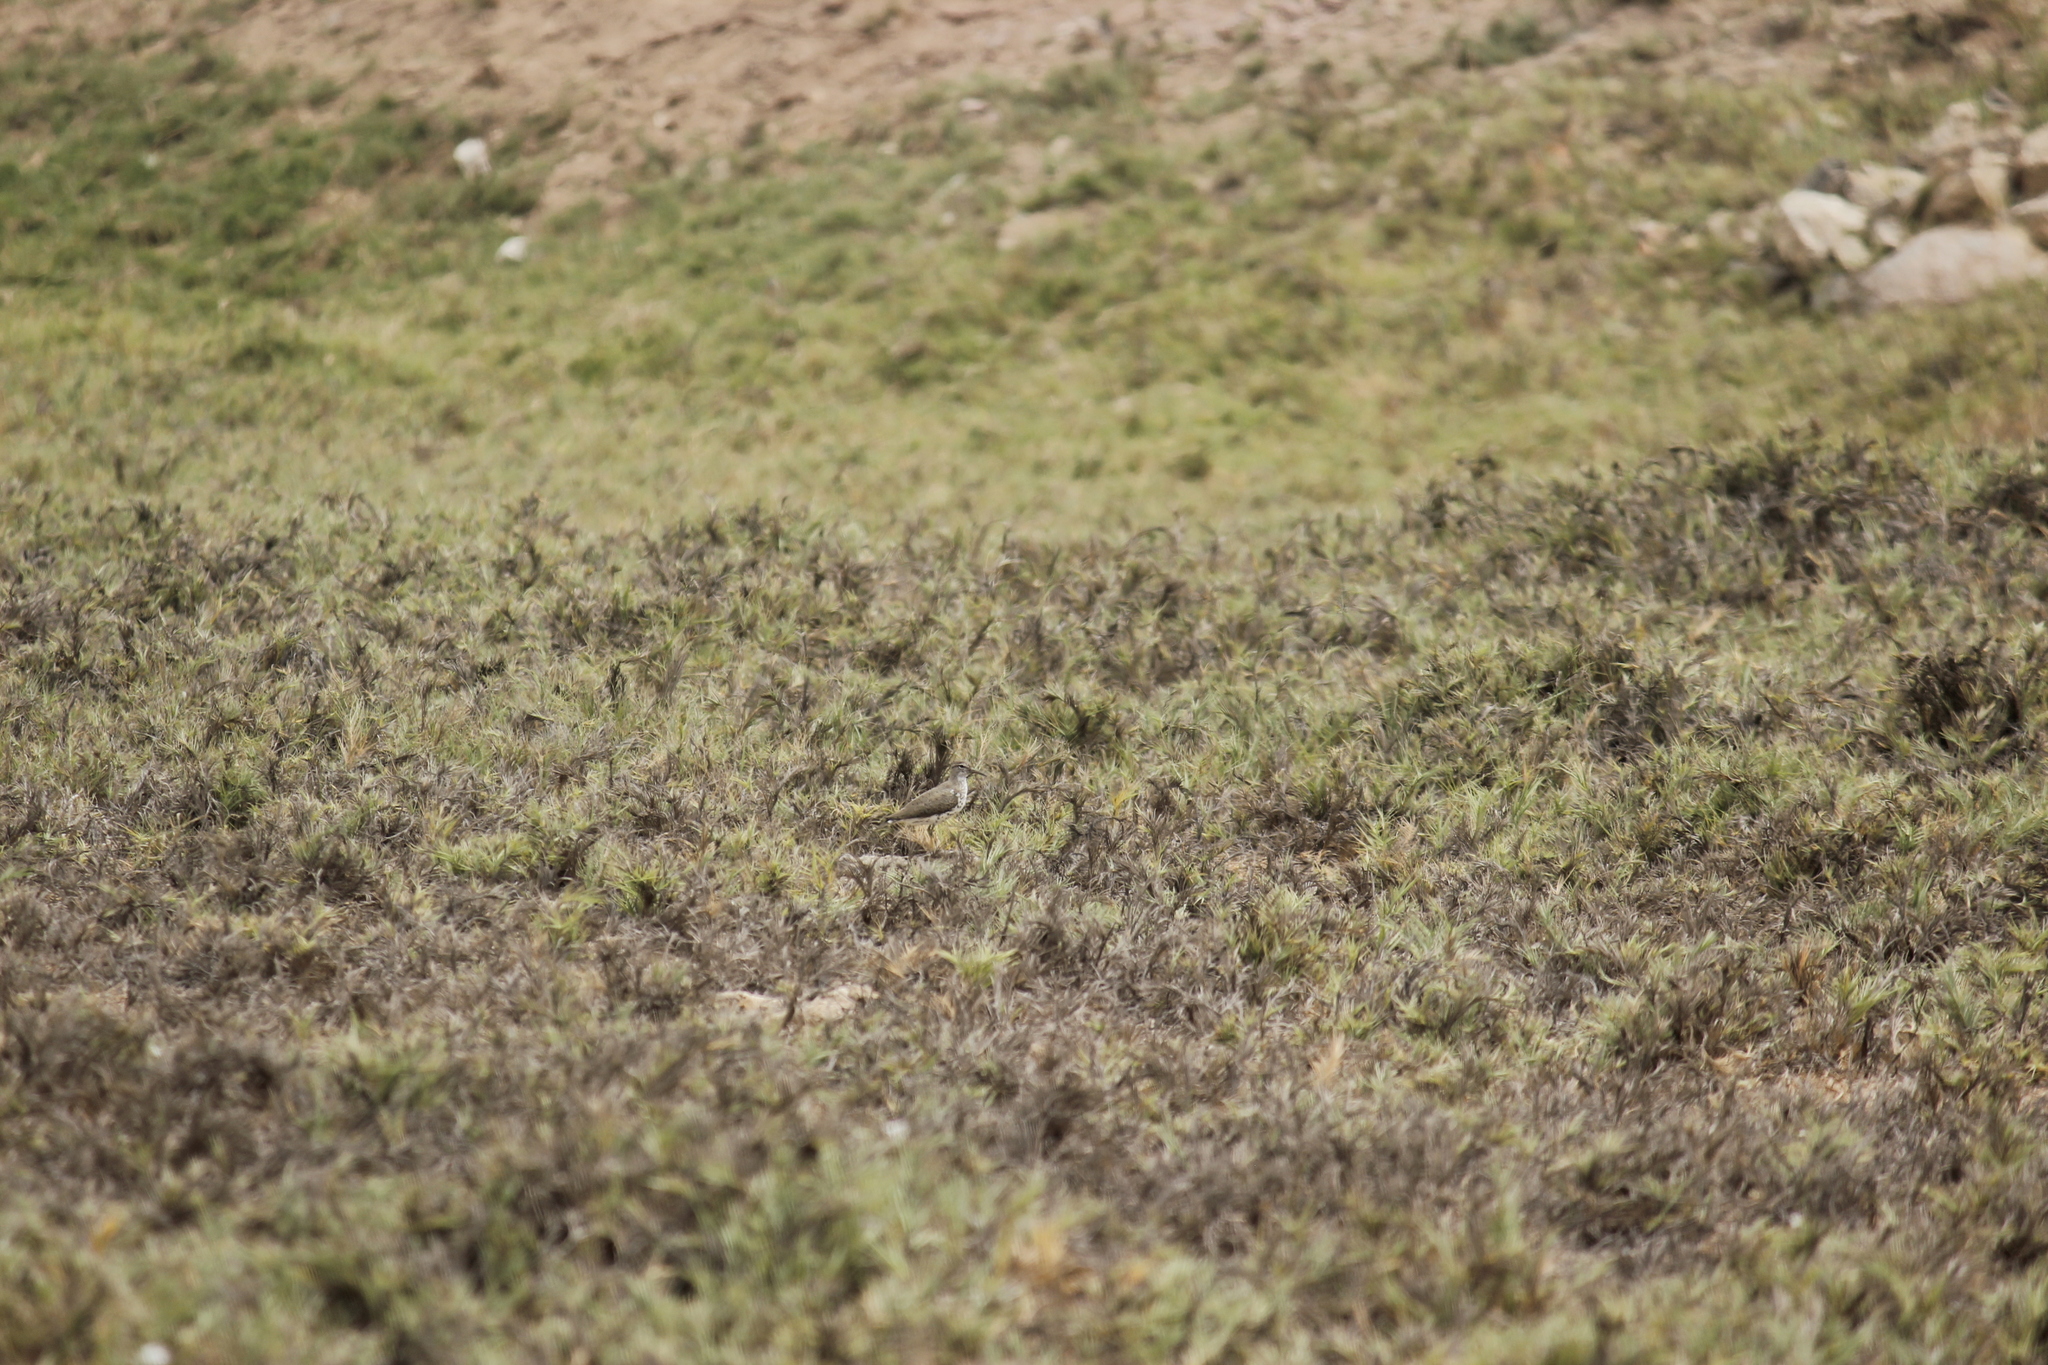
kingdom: Animalia
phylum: Chordata
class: Aves
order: Charadriiformes
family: Scolopacidae
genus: Actitis
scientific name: Actitis macularius
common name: Spotted sandpiper
